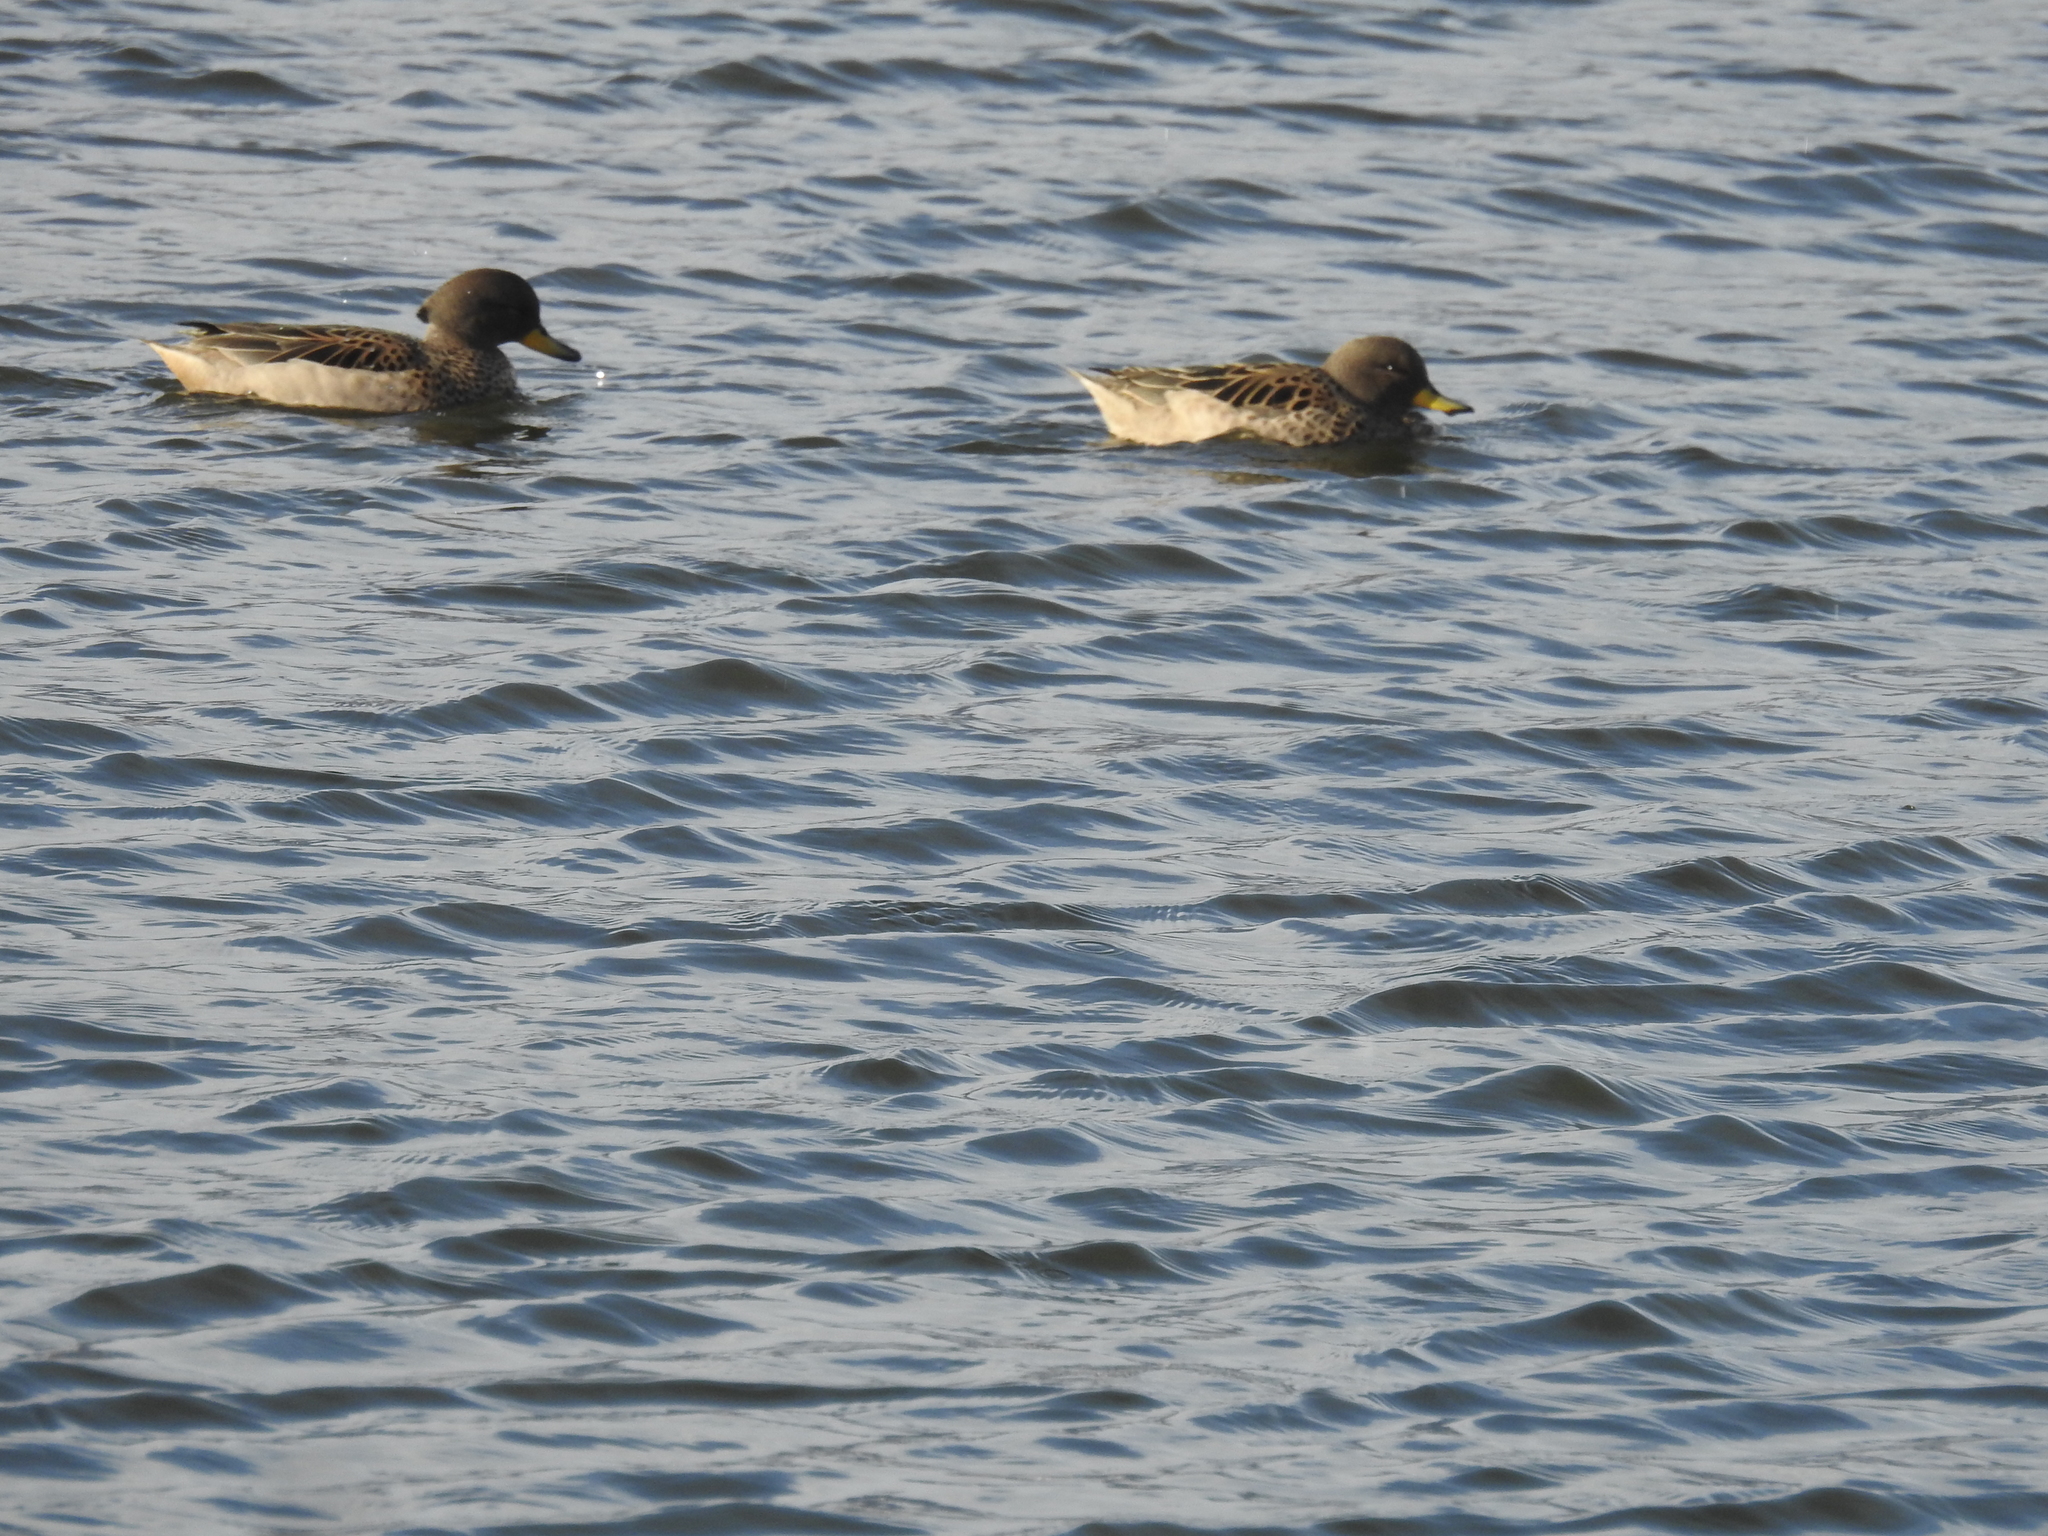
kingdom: Animalia
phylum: Chordata
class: Aves
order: Anseriformes
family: Anatidae
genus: Anas
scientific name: Anas flavirostris
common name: Yellow-billed teal
